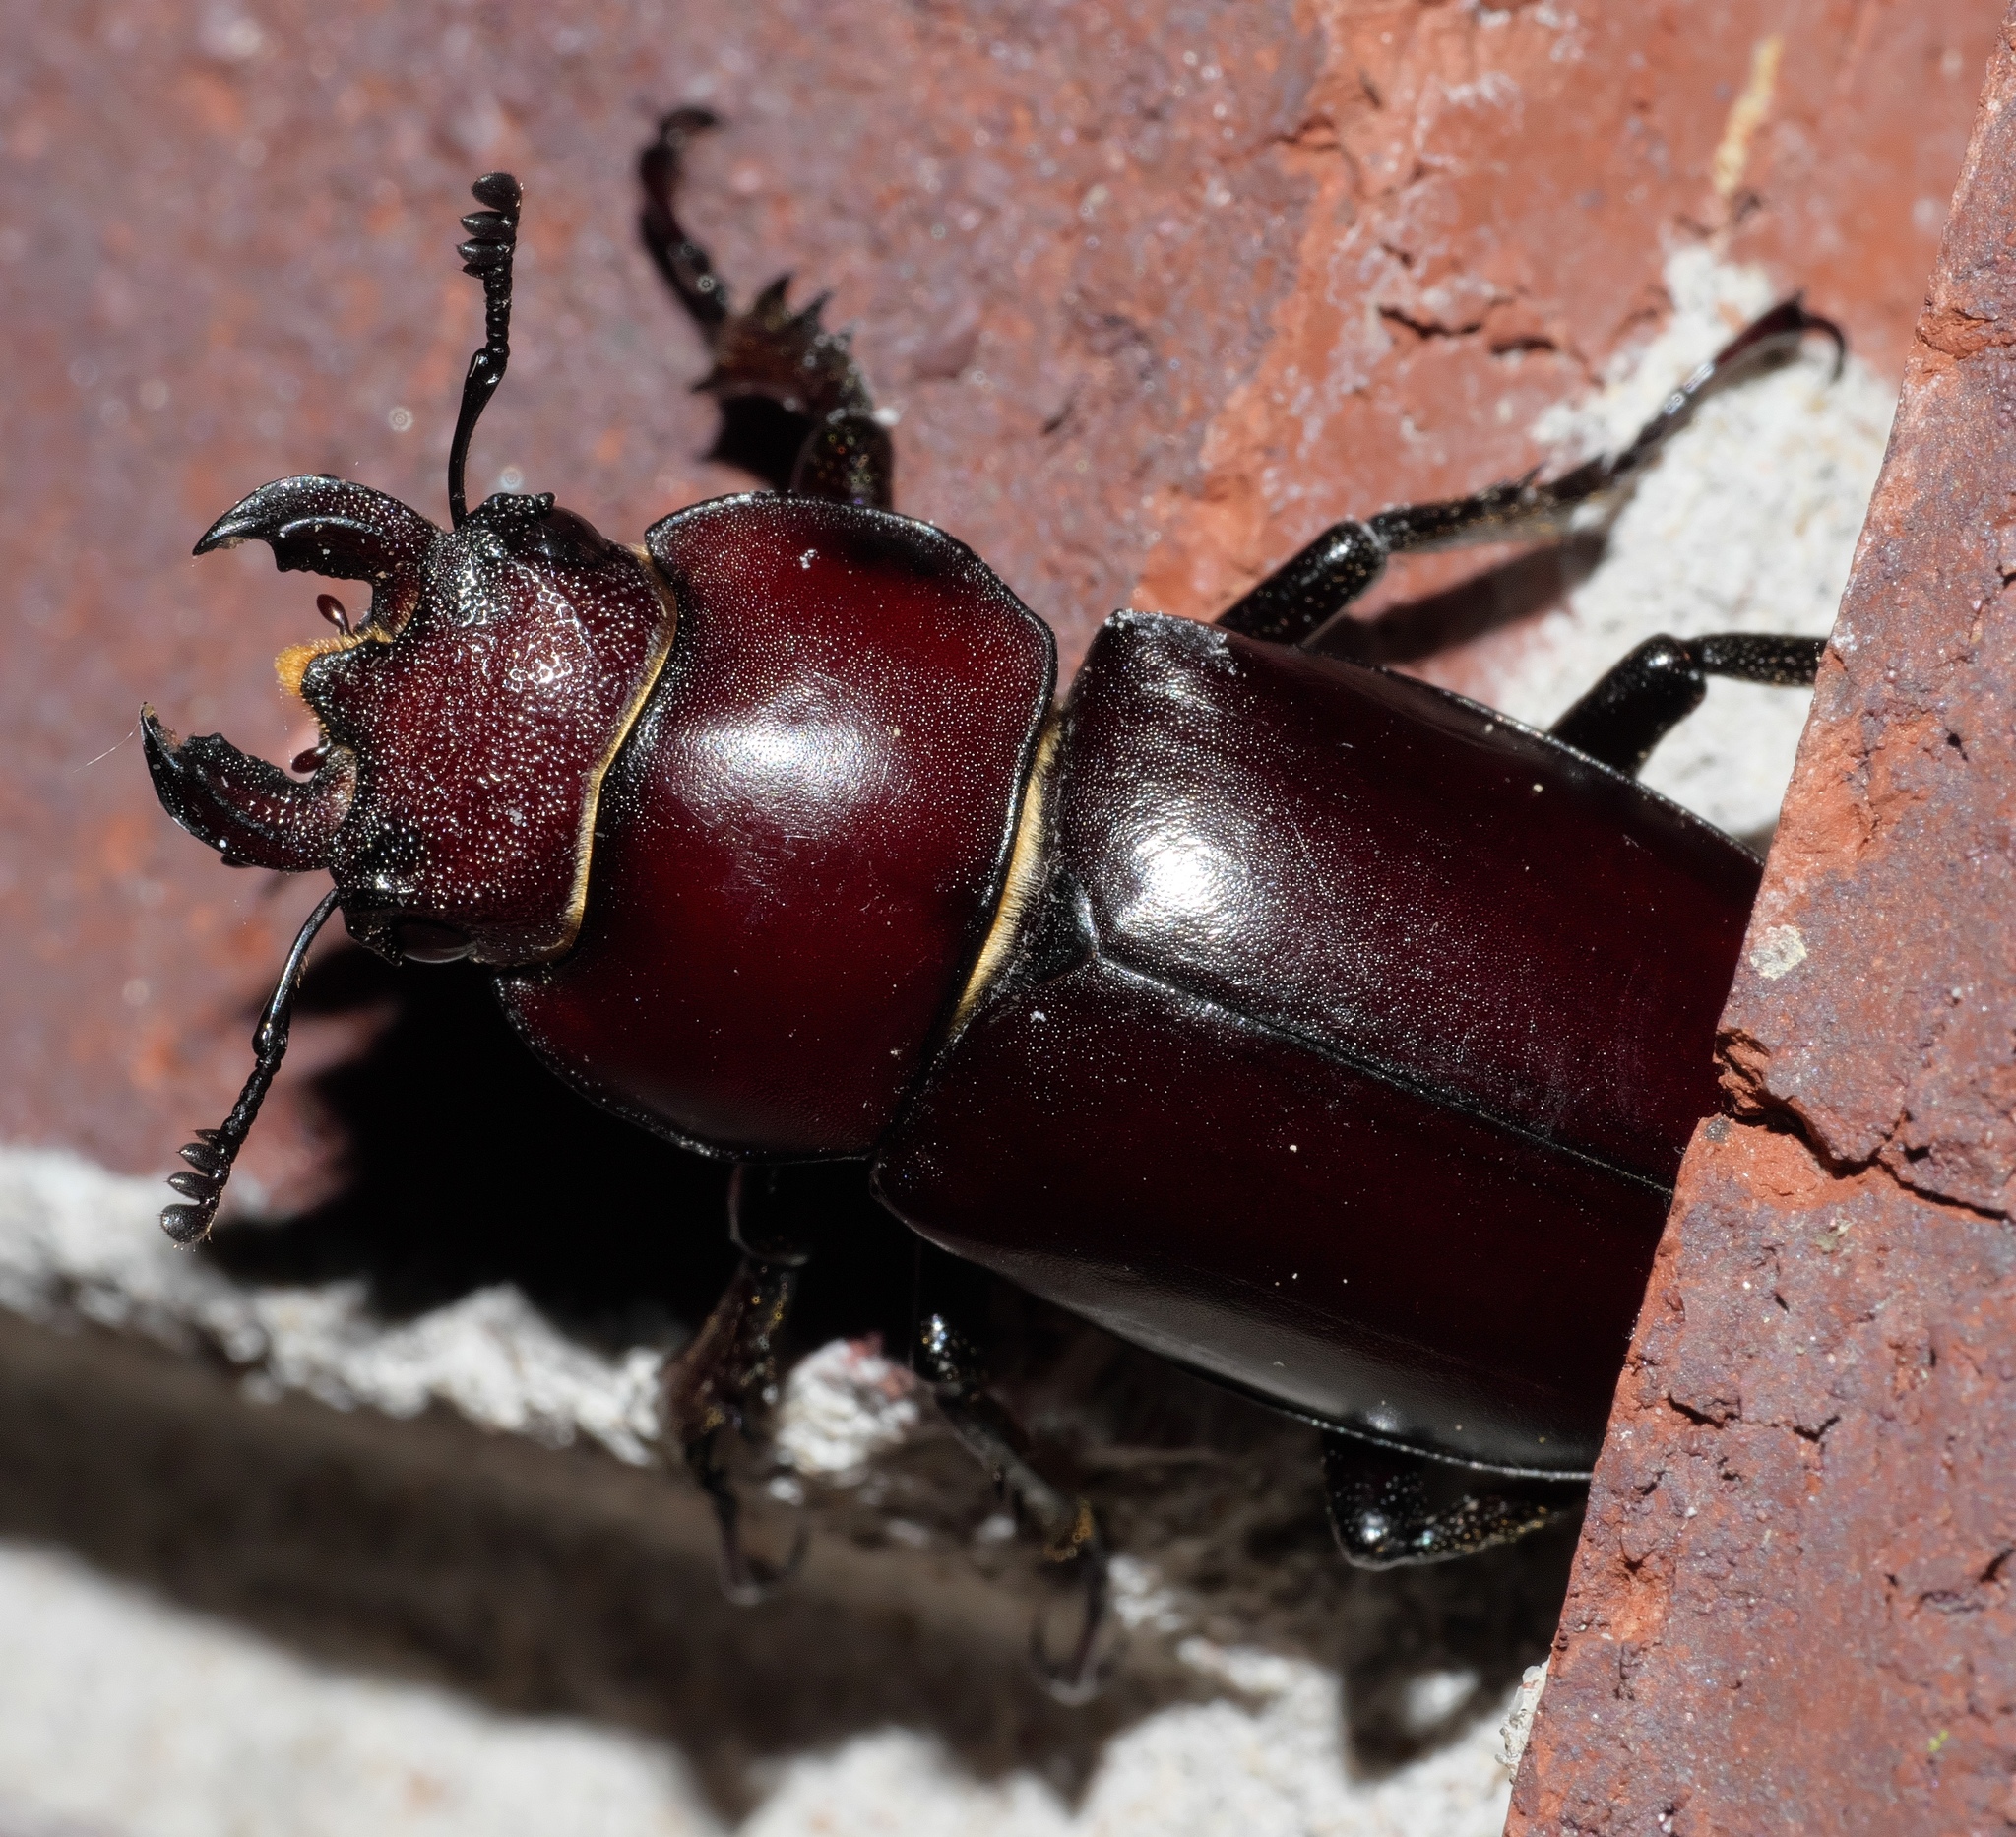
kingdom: Animalia
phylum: Arthropoda
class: Insecta
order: Coleoptera
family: Lucanidae
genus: Lucanus
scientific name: Lucanus elaphus
